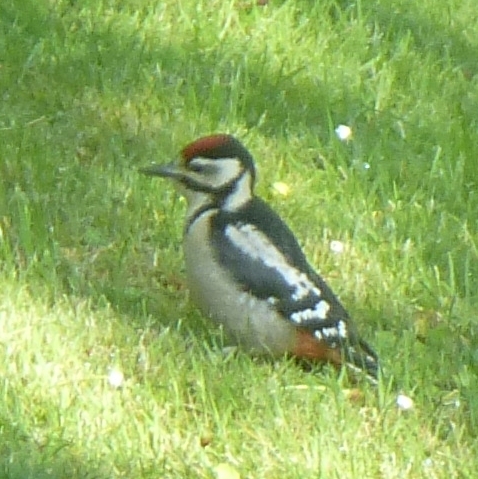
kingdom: Animalia
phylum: Chordata
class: Aves
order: Piciformes
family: Picidae
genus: Dendrocopos
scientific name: Dendrocopos major
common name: Great spotted woodpecker
